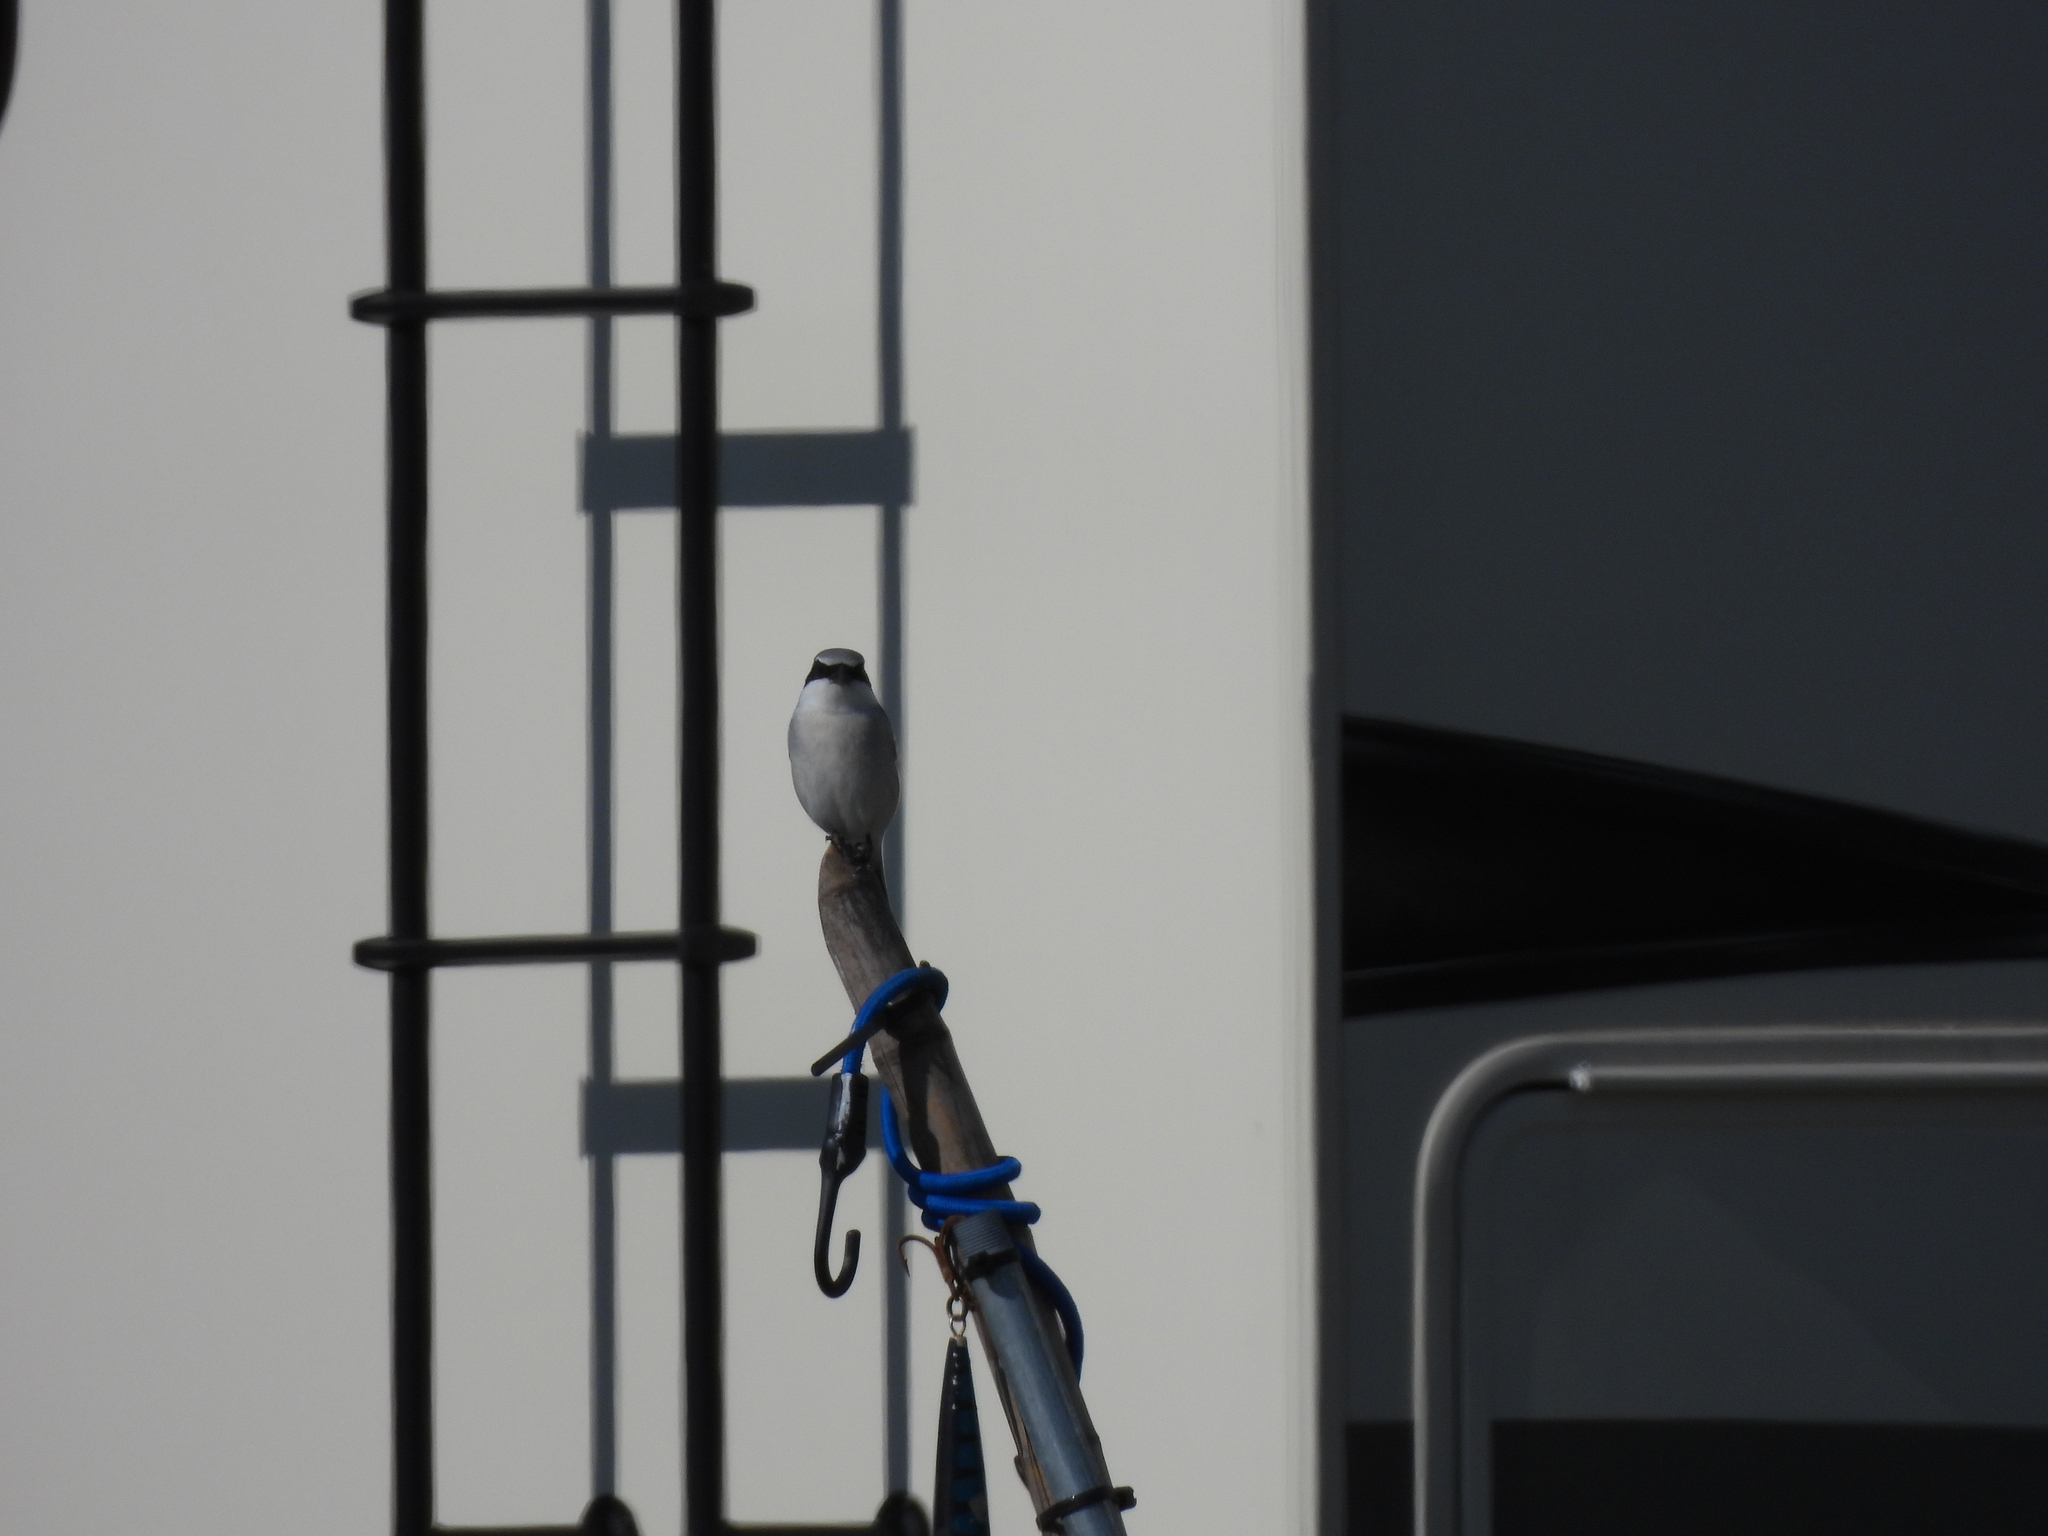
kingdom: Animalia
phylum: Chordata
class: Aves
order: Passeriformes
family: Laniidae
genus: Lanius
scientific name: Lanius ludovicianus
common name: Loggerhead shrike
